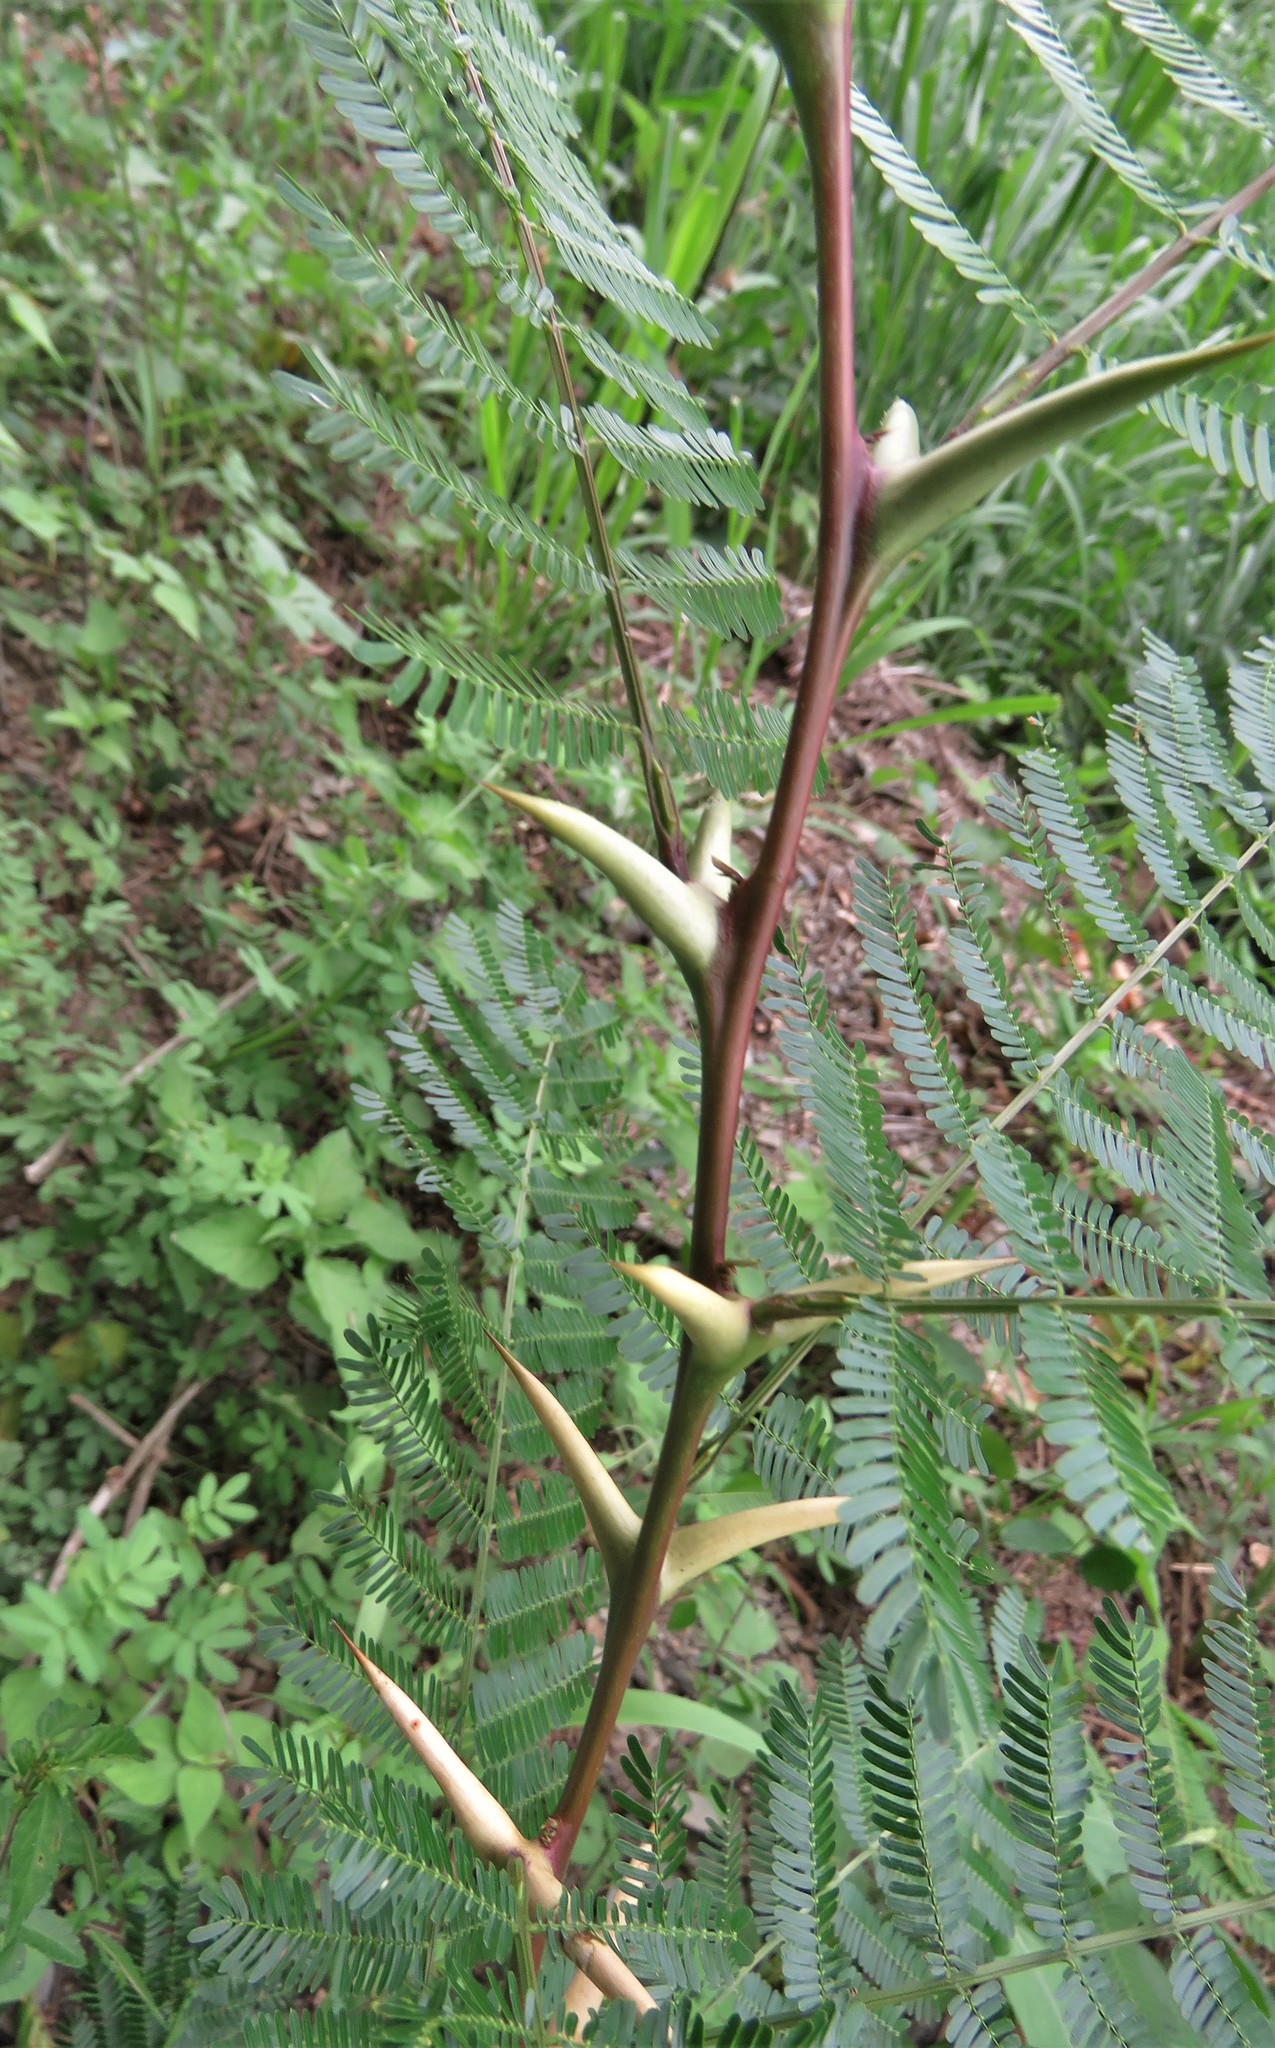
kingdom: Plantae
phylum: Tracheophyta
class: Magnoliopsida
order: Fabales
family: Fabaceae
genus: Vachellia
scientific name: Vachellia cornigera
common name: Bullhorn wattle
